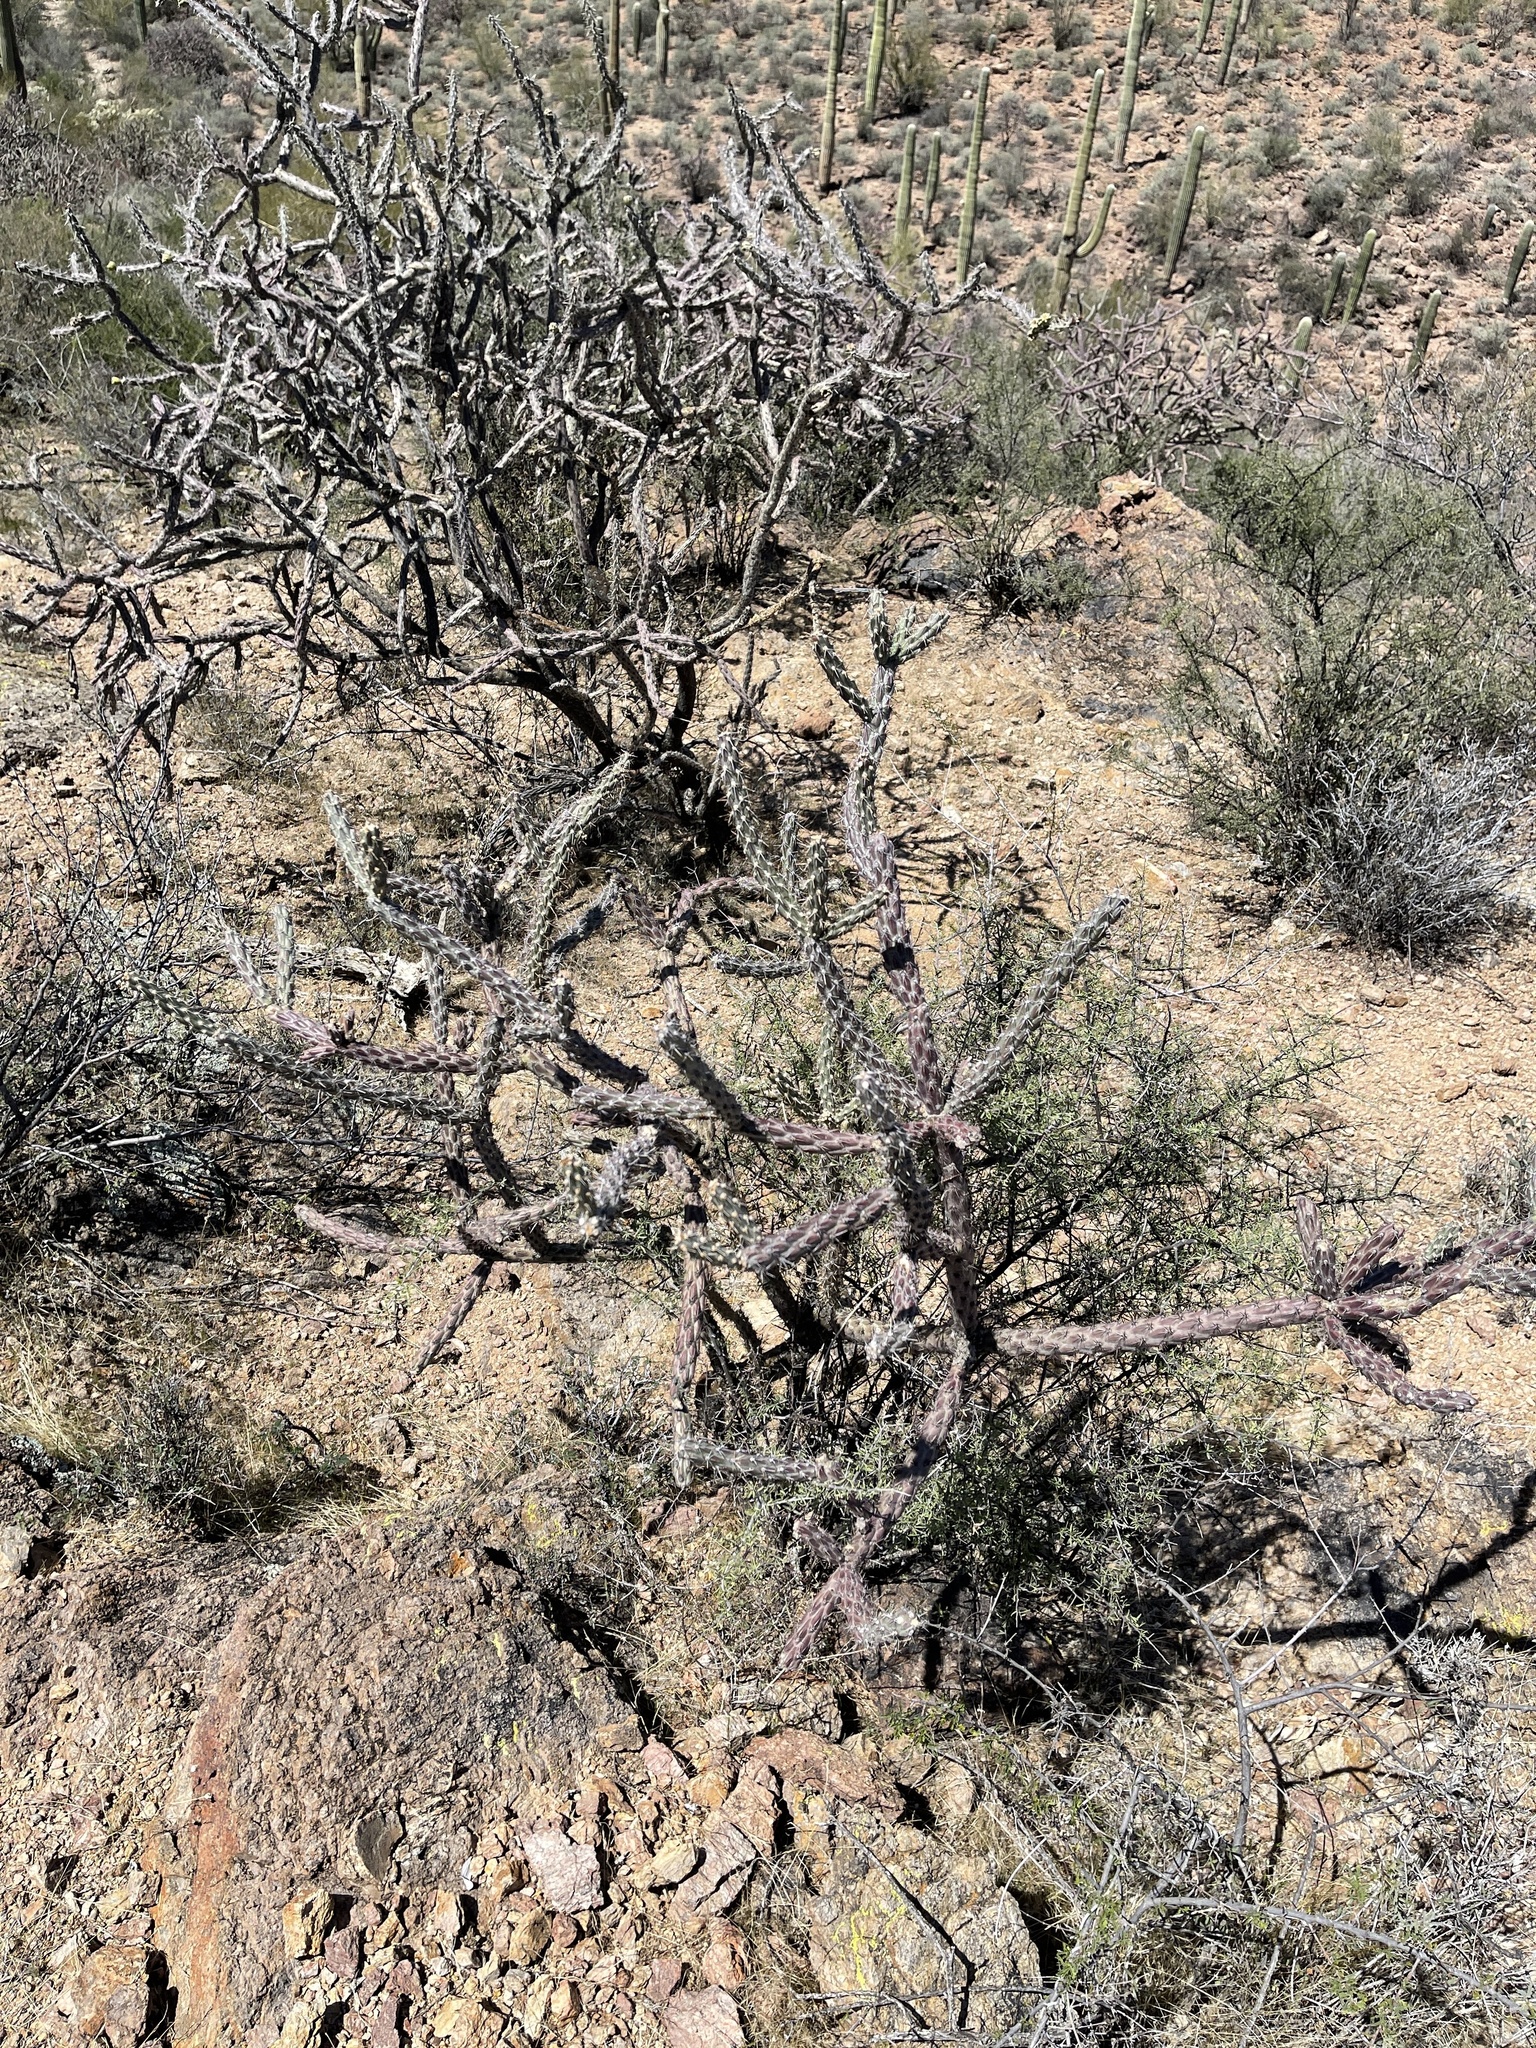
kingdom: Plantae
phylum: Tracheophyta
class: Magnoliopsida
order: Caryophyllales
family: Cactaceae
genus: Cylindropuntia
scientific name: Cylindropuntia thurberi
